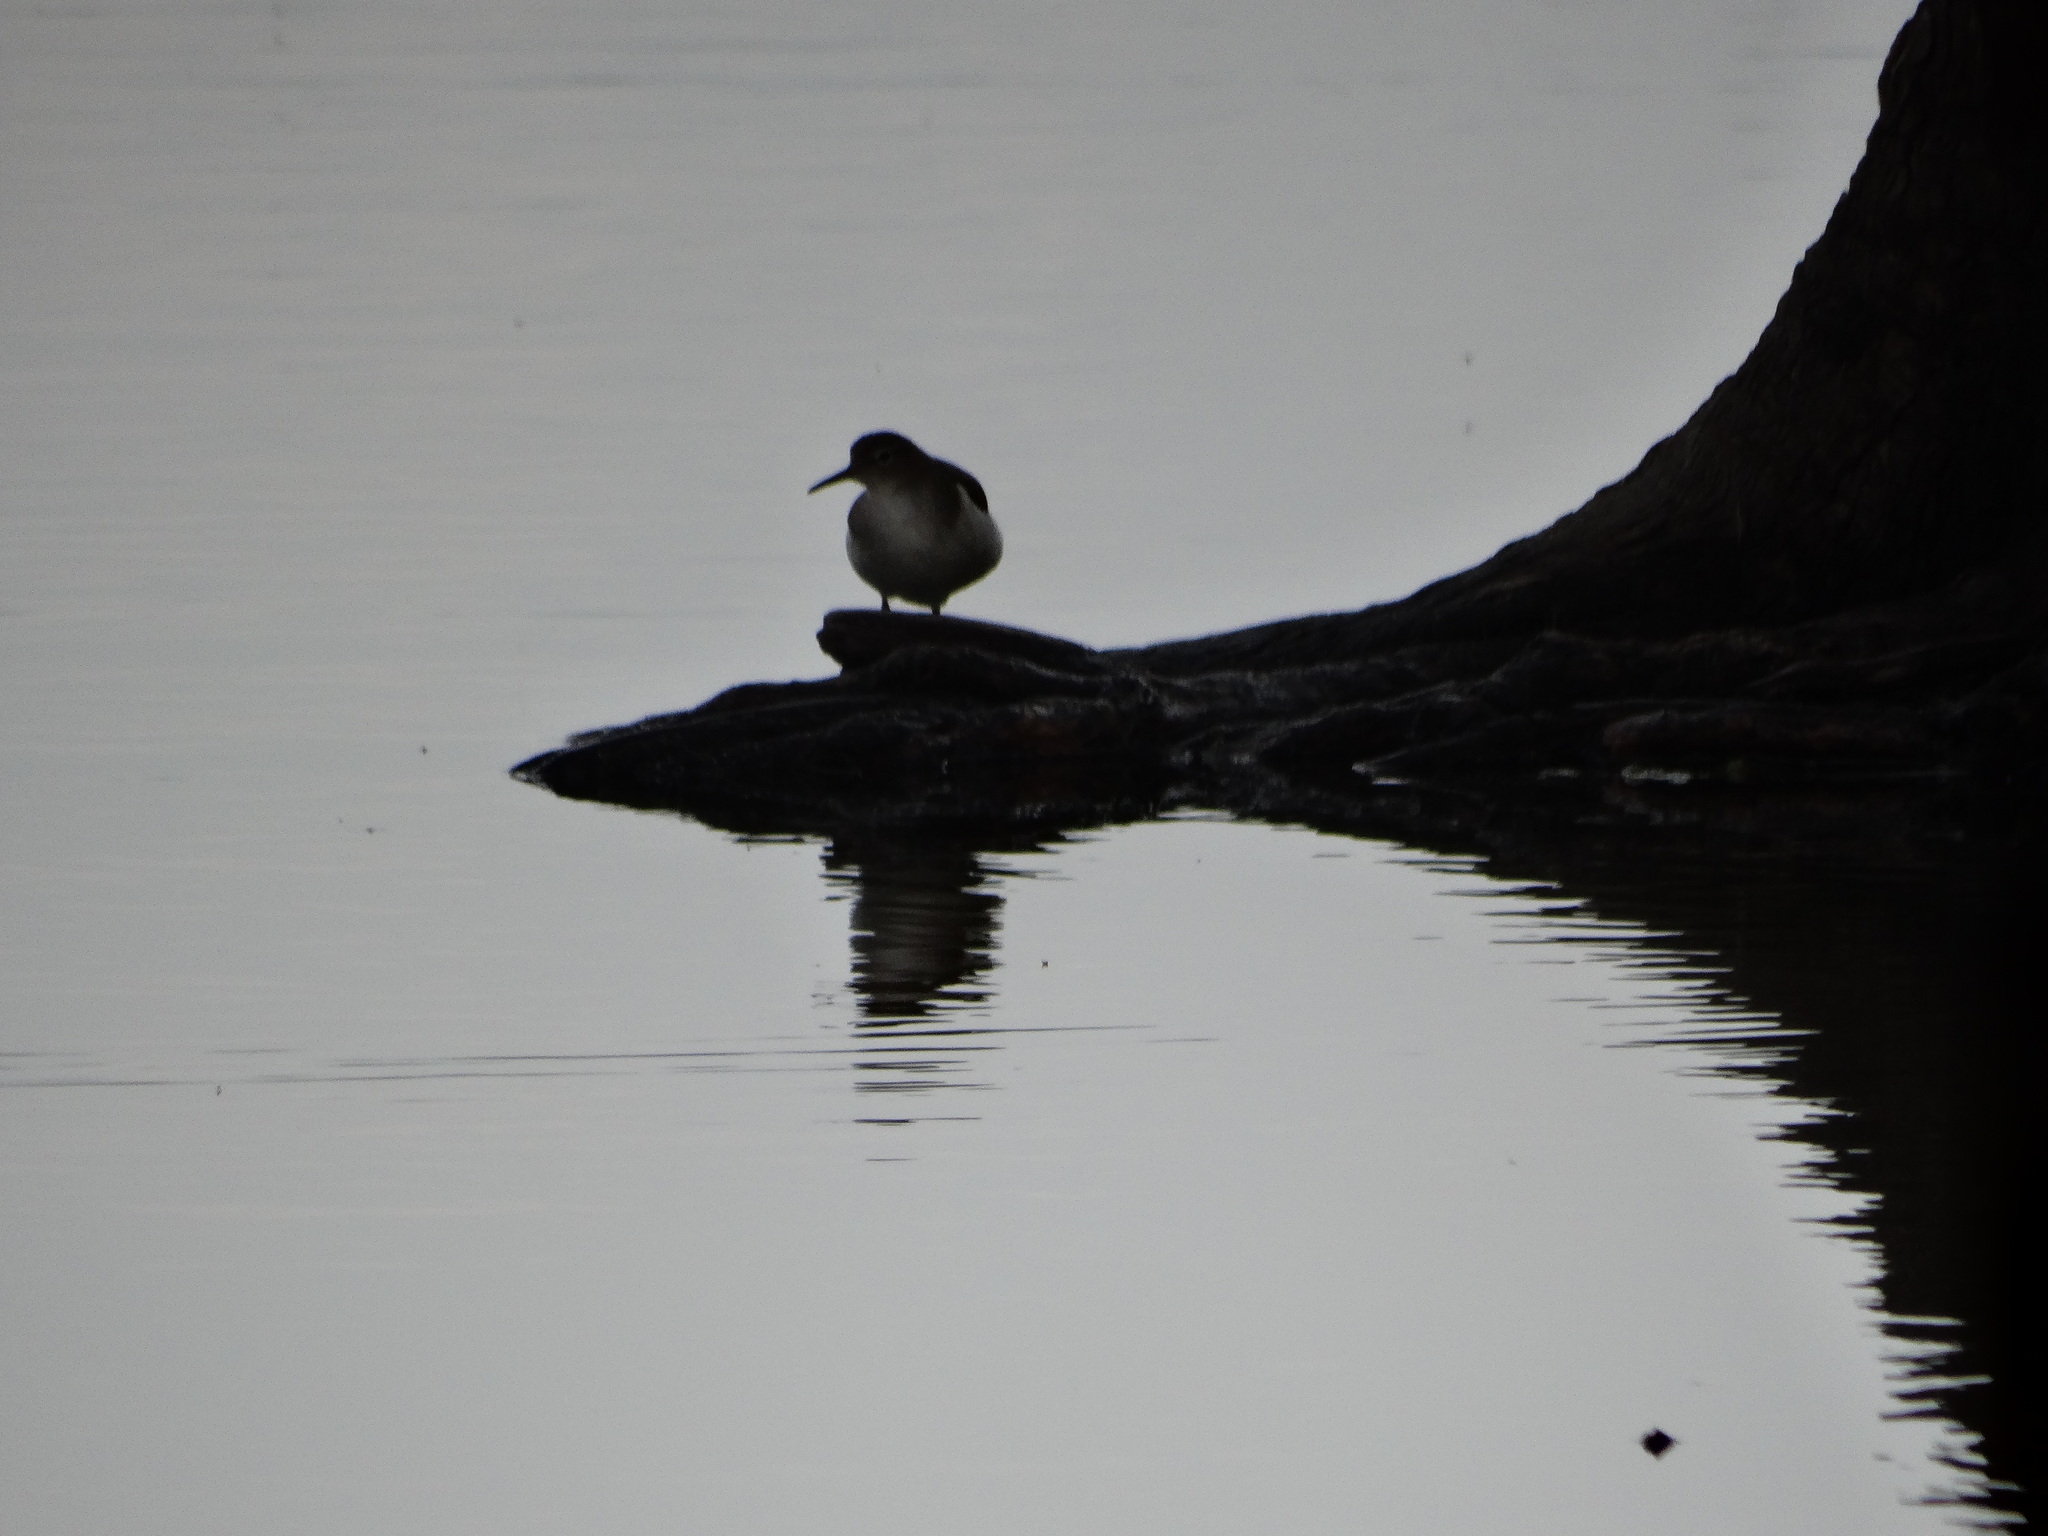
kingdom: Animalia
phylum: Chordata
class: Aves
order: Charadriiformes
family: Scolopacidae
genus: Actitis
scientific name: Actitis macularius
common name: Spotted sandpiper
